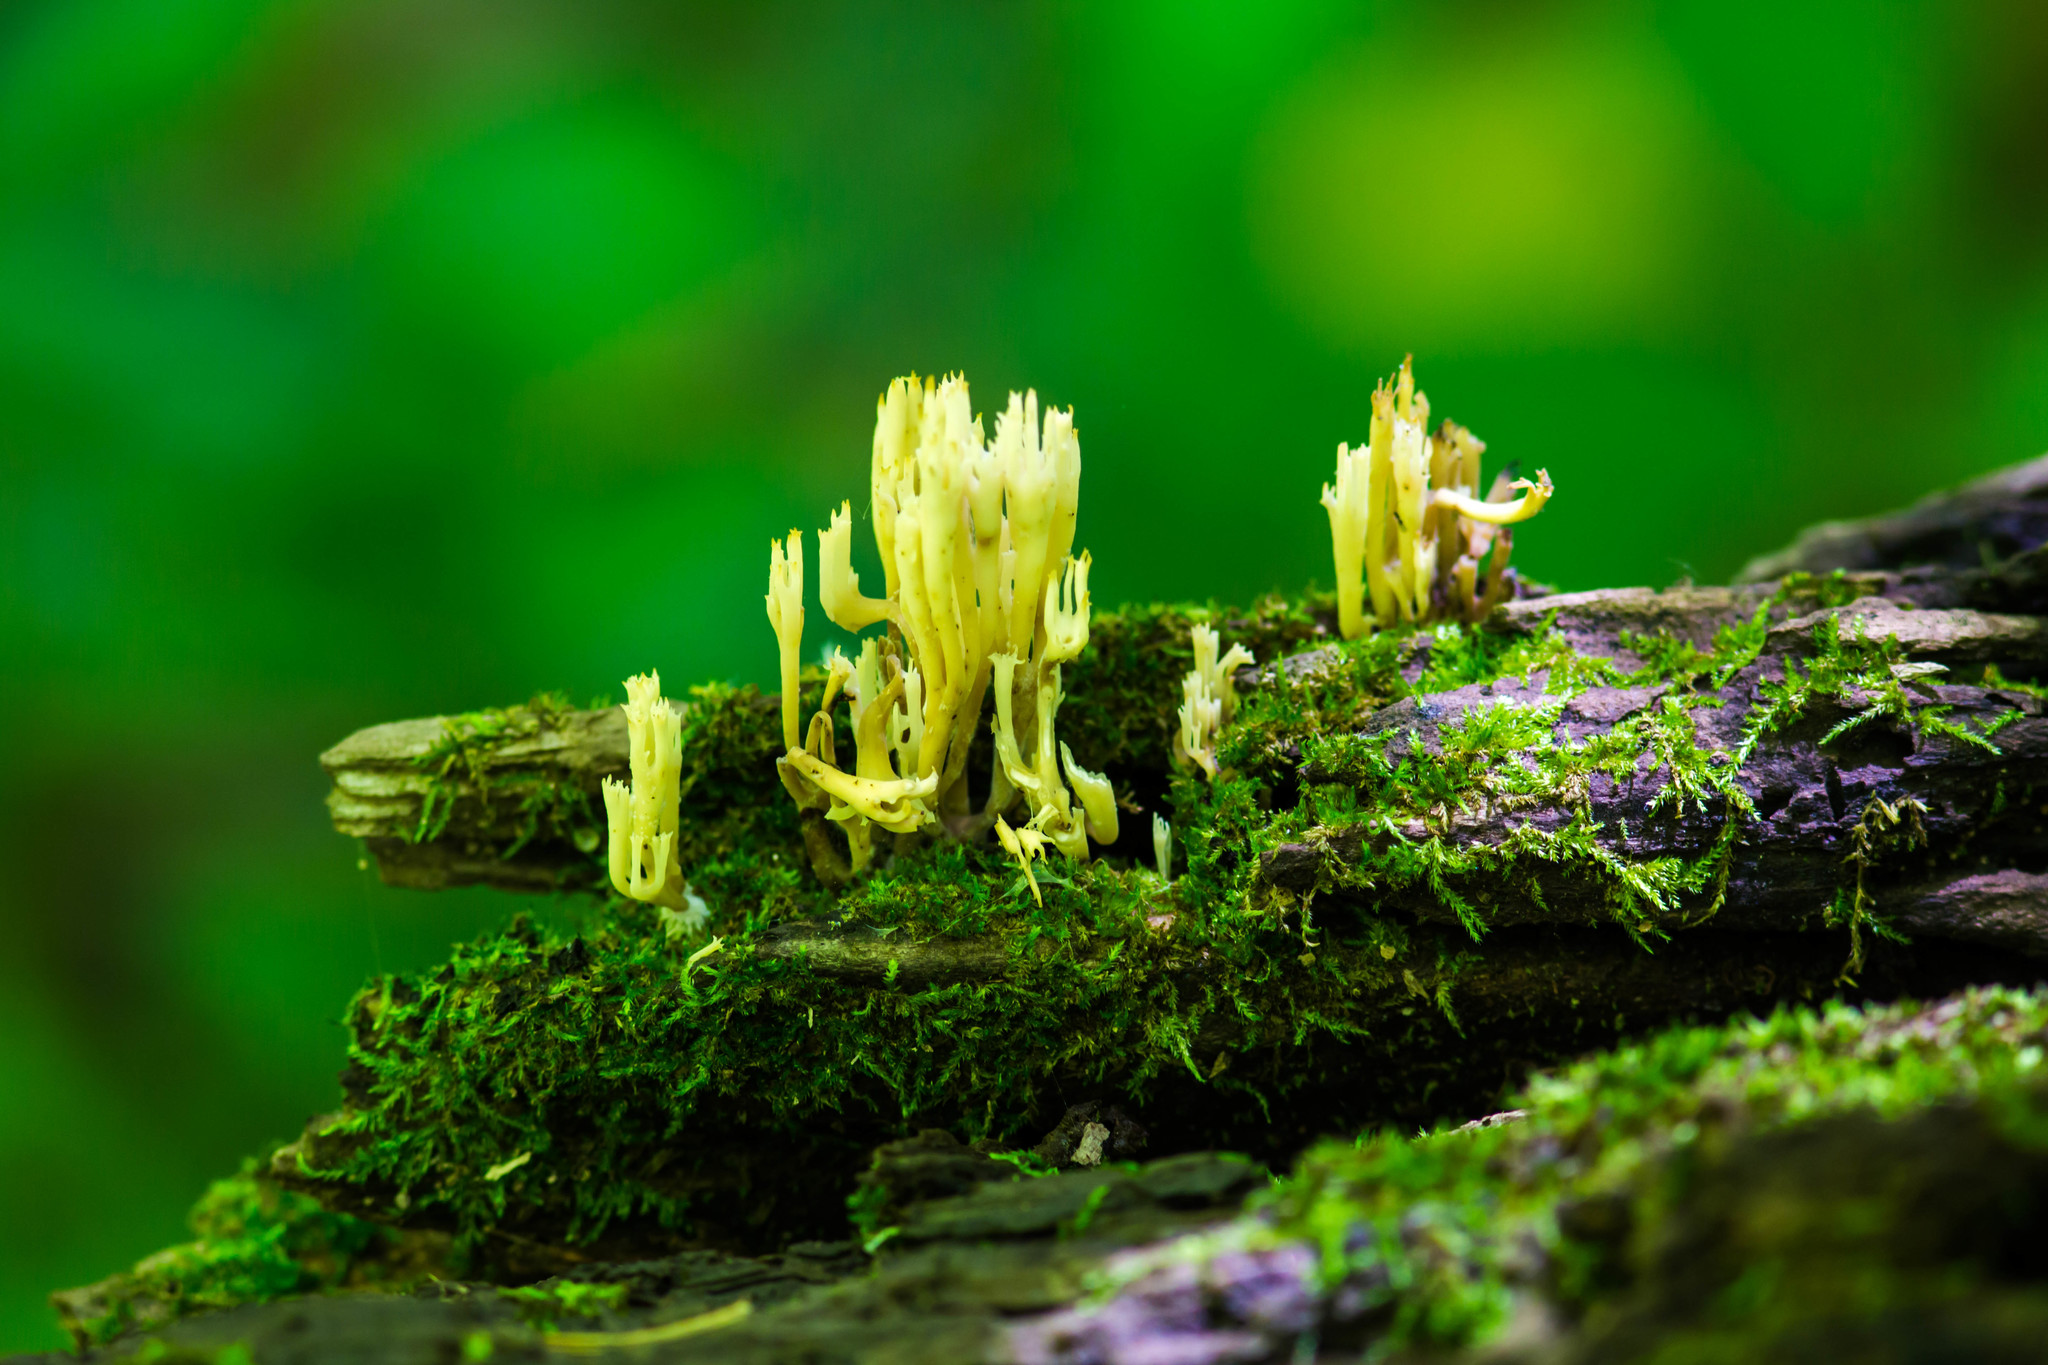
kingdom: Fungi
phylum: Basidiomycota
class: Agaricomycetes
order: Russulales
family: Auriscalpiaceae
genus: Artomyces
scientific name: Artomyces pyxidatus
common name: Crown-tipped coral fungus
